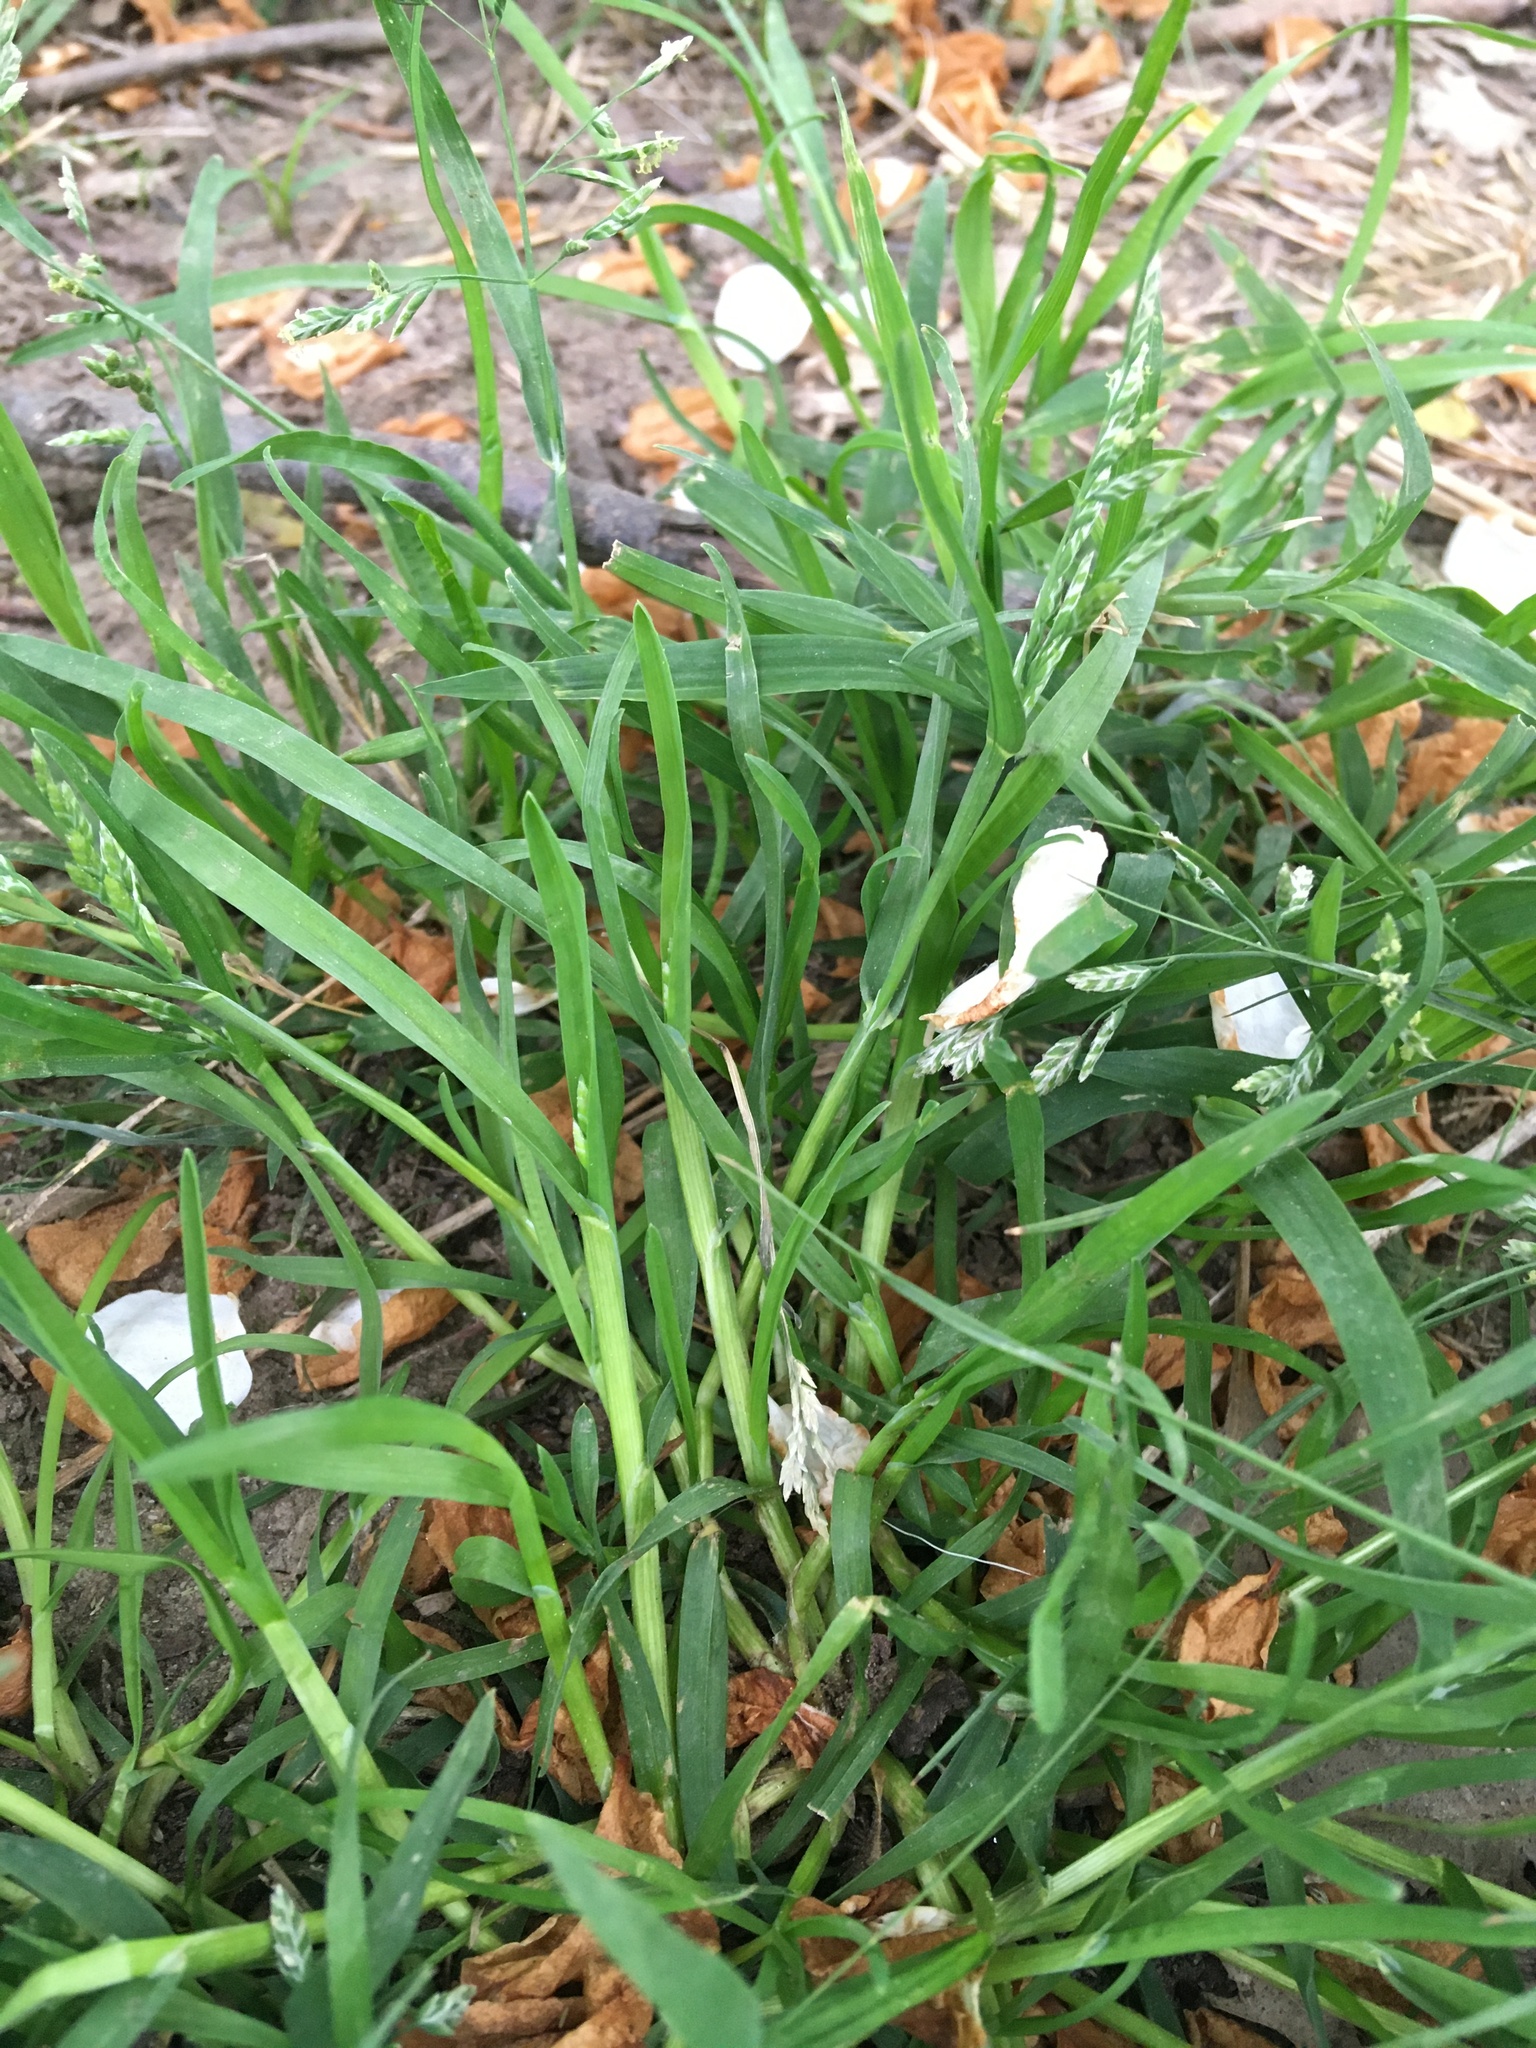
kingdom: Plantae
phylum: Tracheophyta
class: Liliopsida
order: Poales
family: Poaceae
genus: Poa
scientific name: Poa compressa
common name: Canada bluegrass
